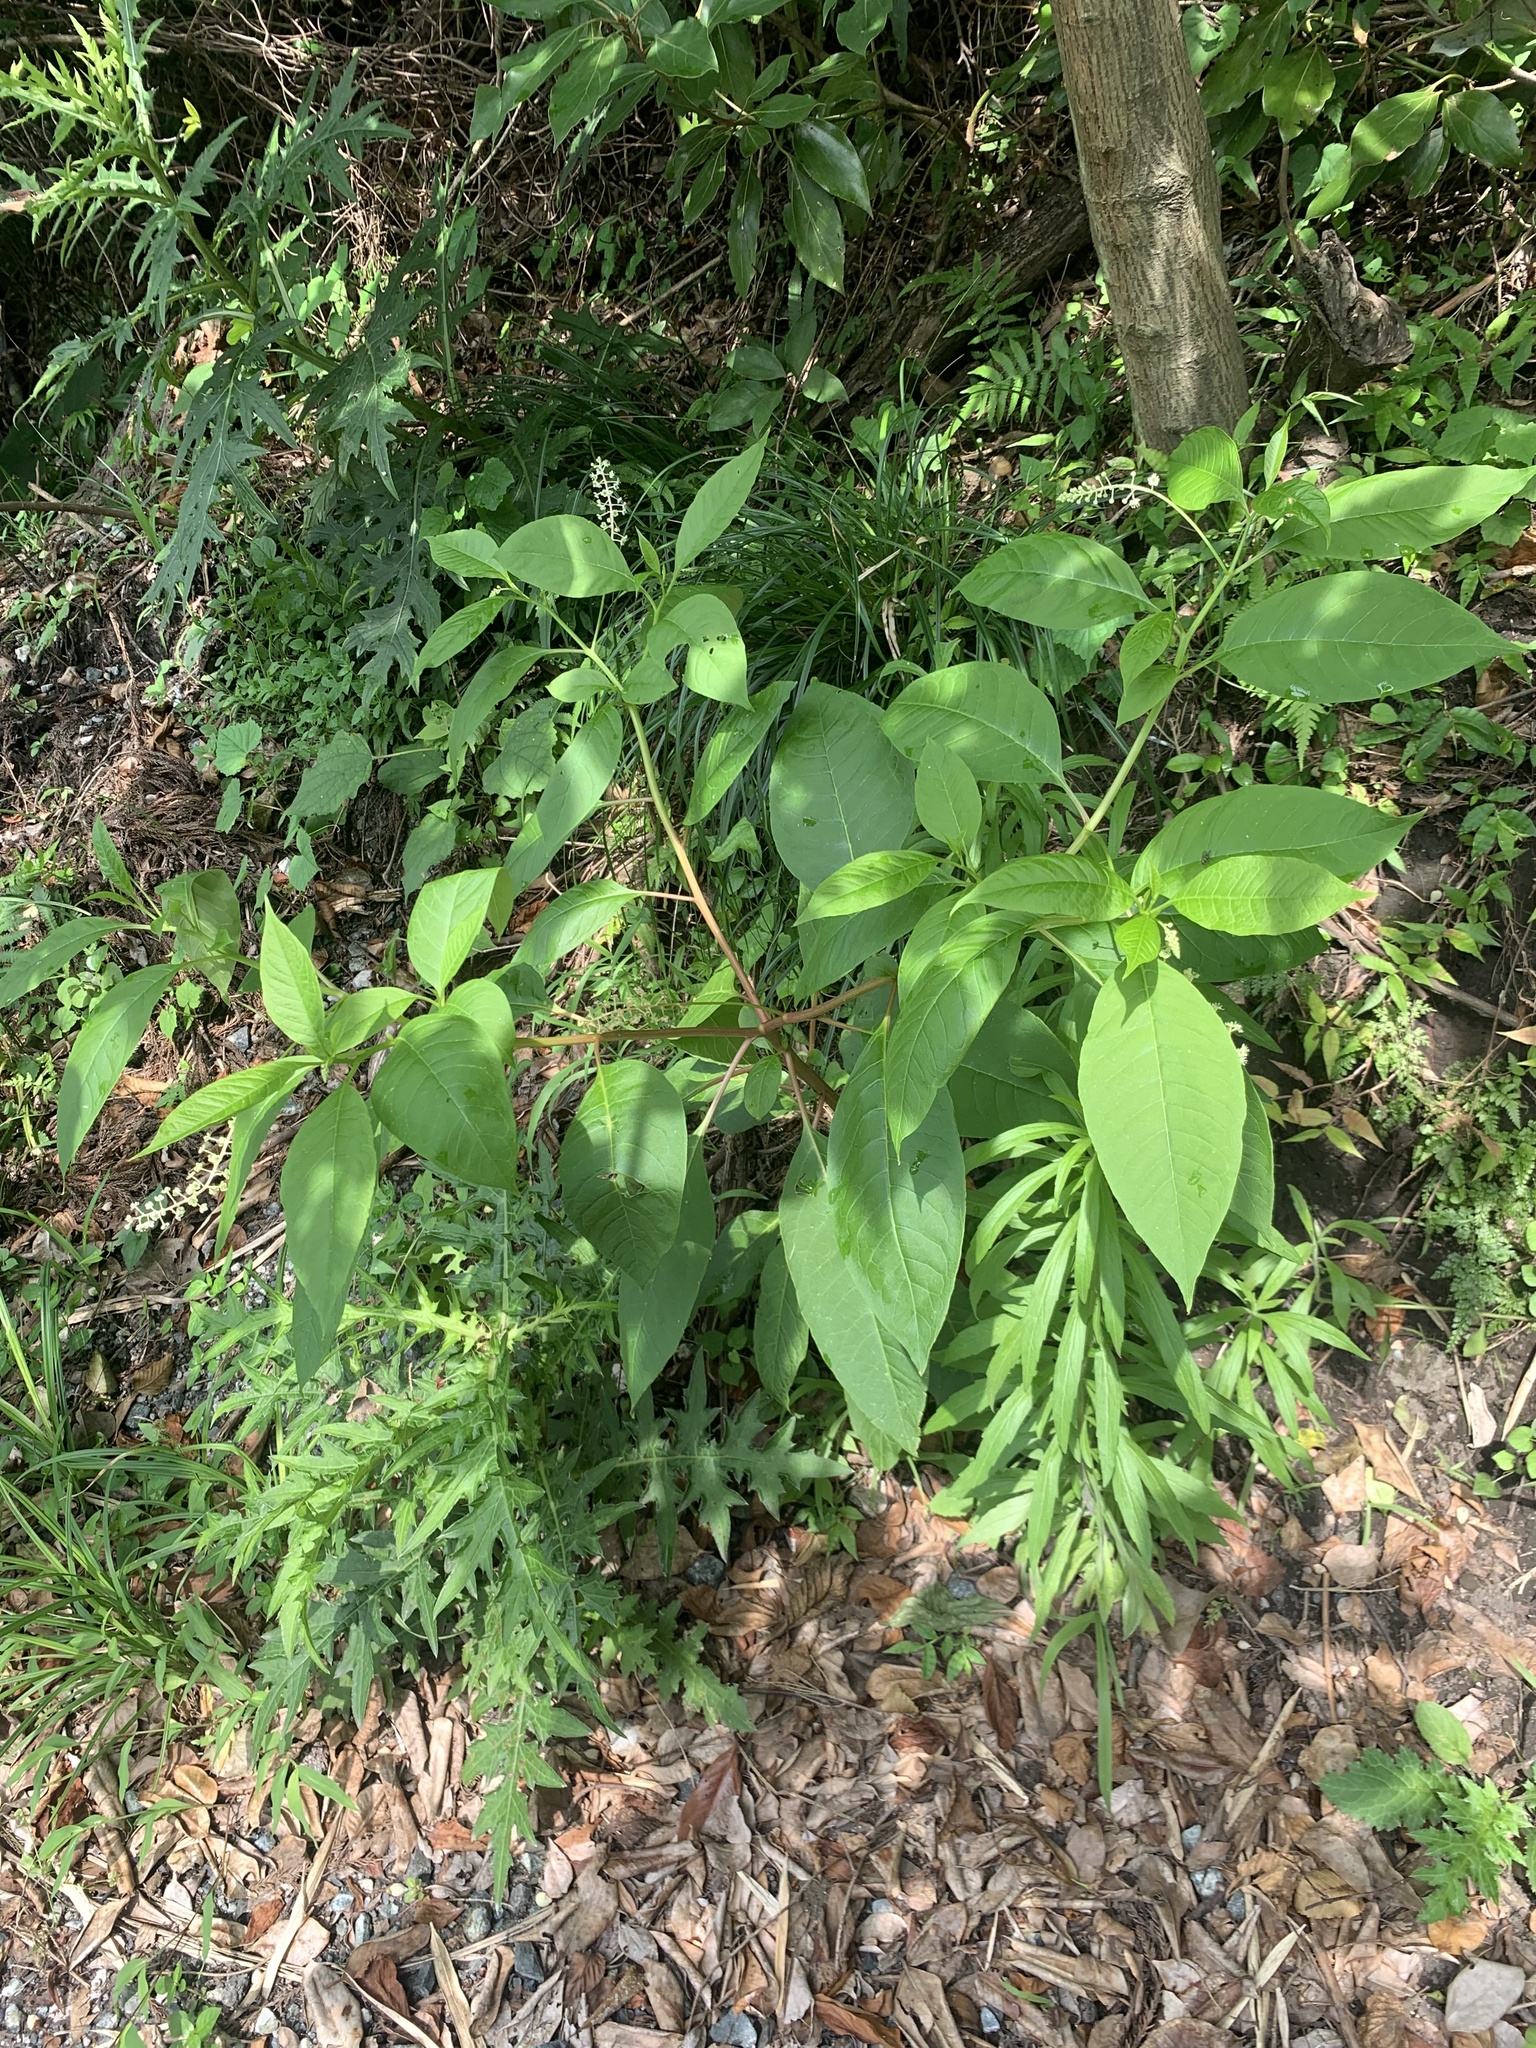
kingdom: Plantae
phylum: Tracheophyta
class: Magnoliopsida
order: Caryophyllales
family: Phytolaccaceae
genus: Phytolacca
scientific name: Phytolacca americana
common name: American pokeweed
